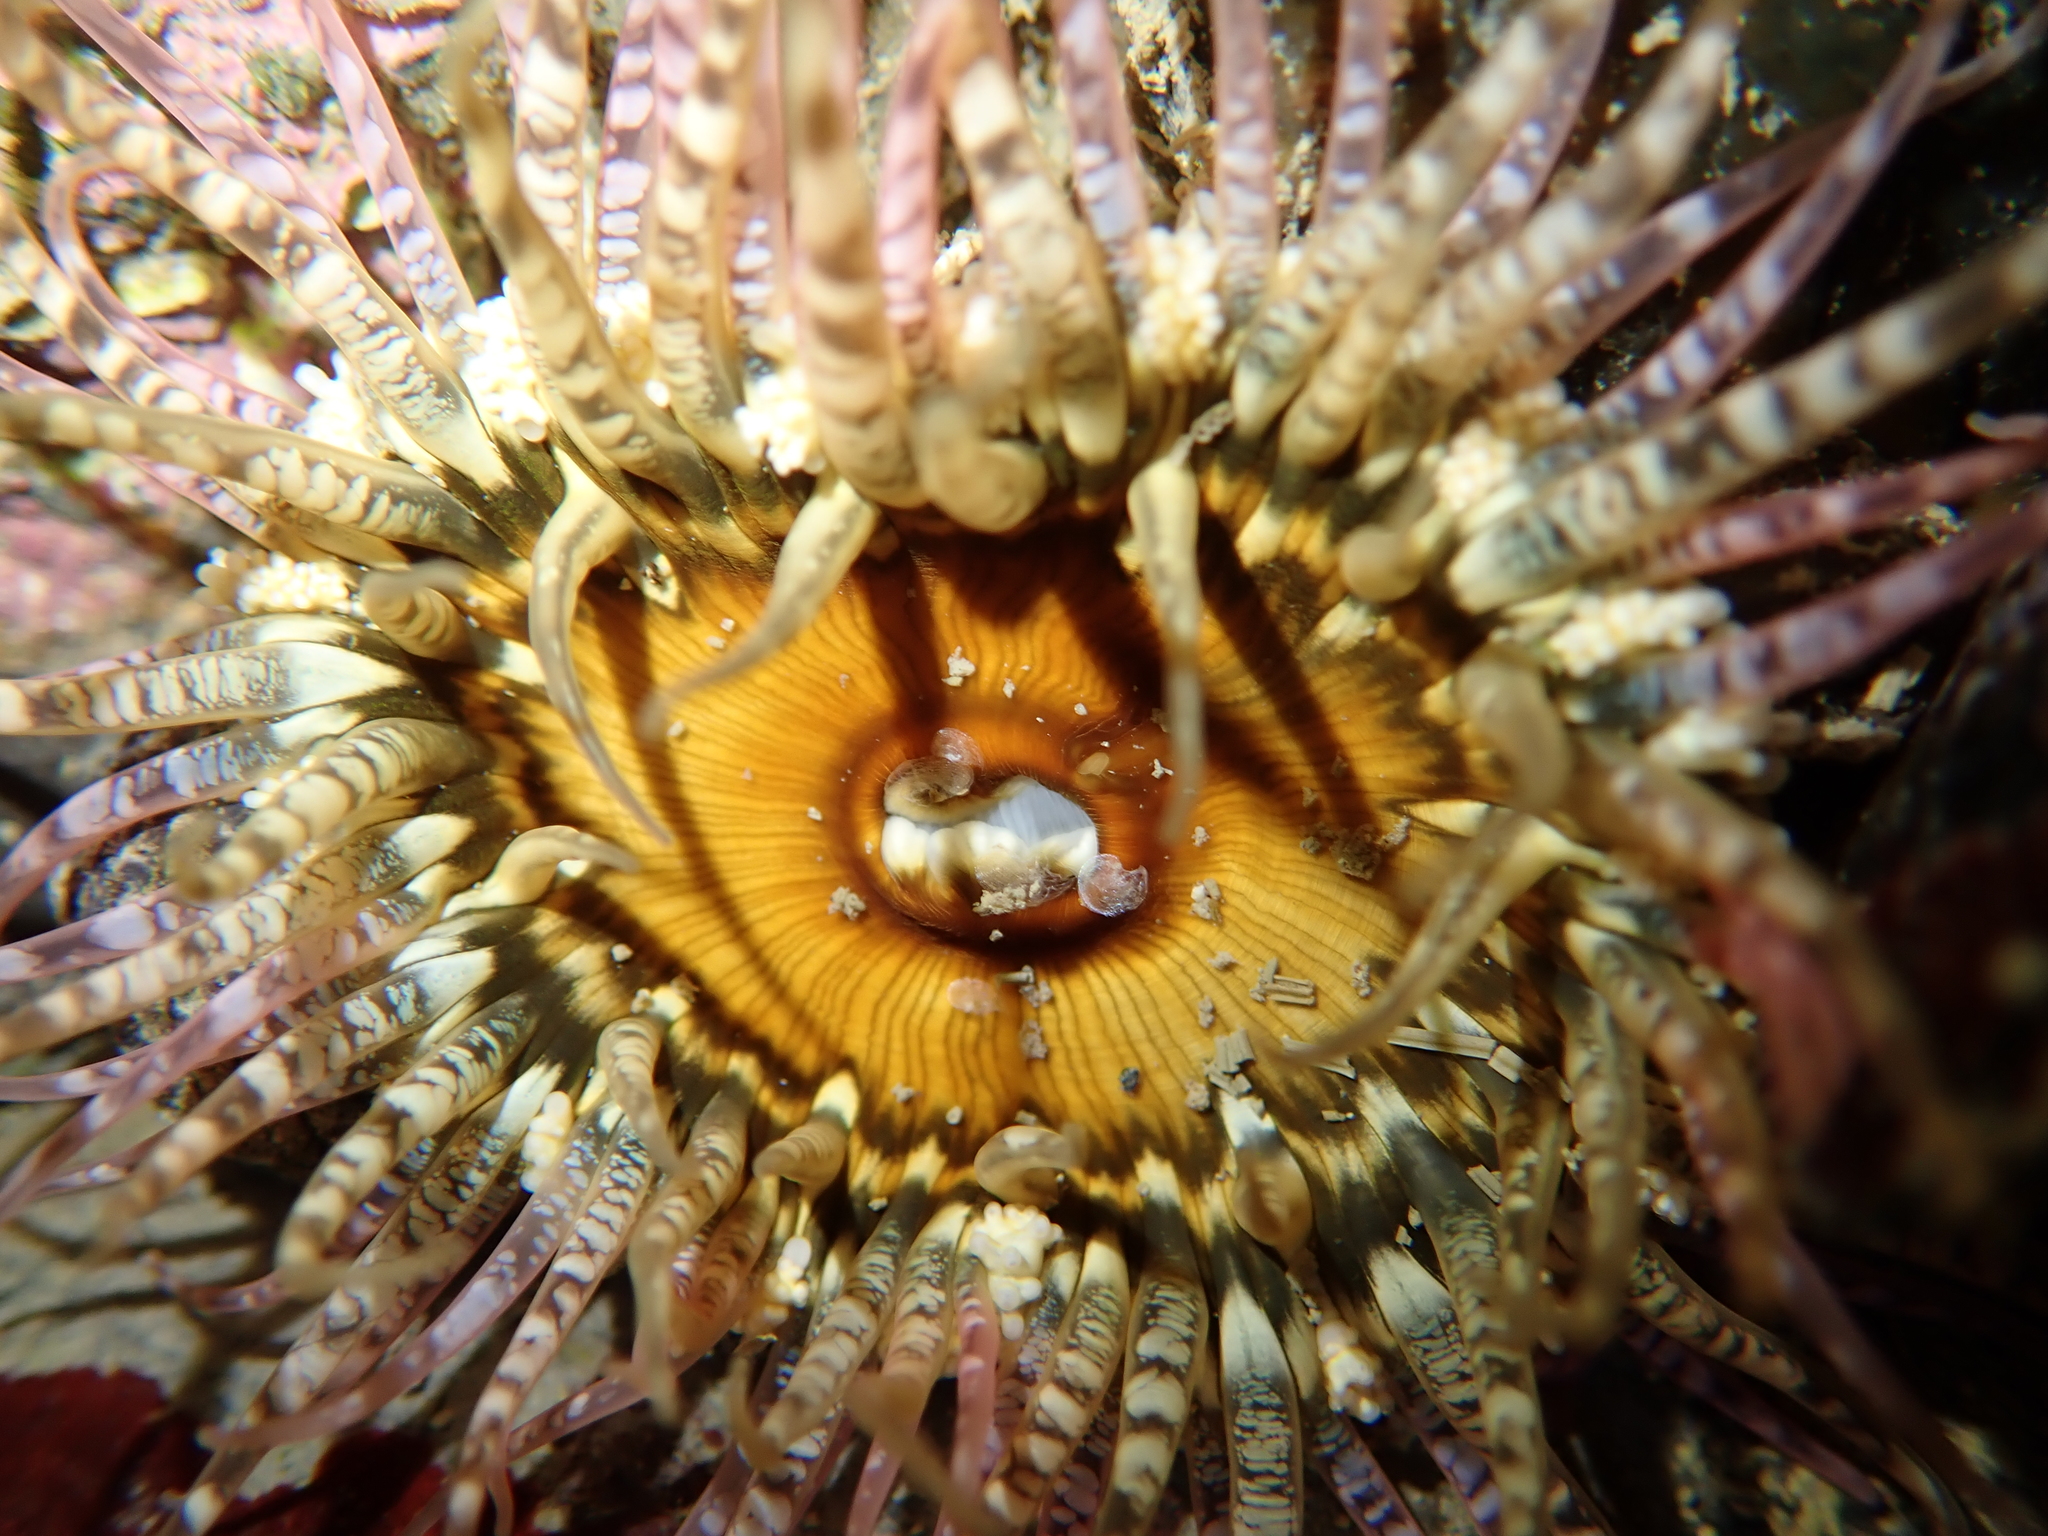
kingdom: Animalia
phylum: Cnidaria
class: Anthozoa
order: Actiniaria
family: Actiniidae
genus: Oulactis
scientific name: Oulactis muscosa
